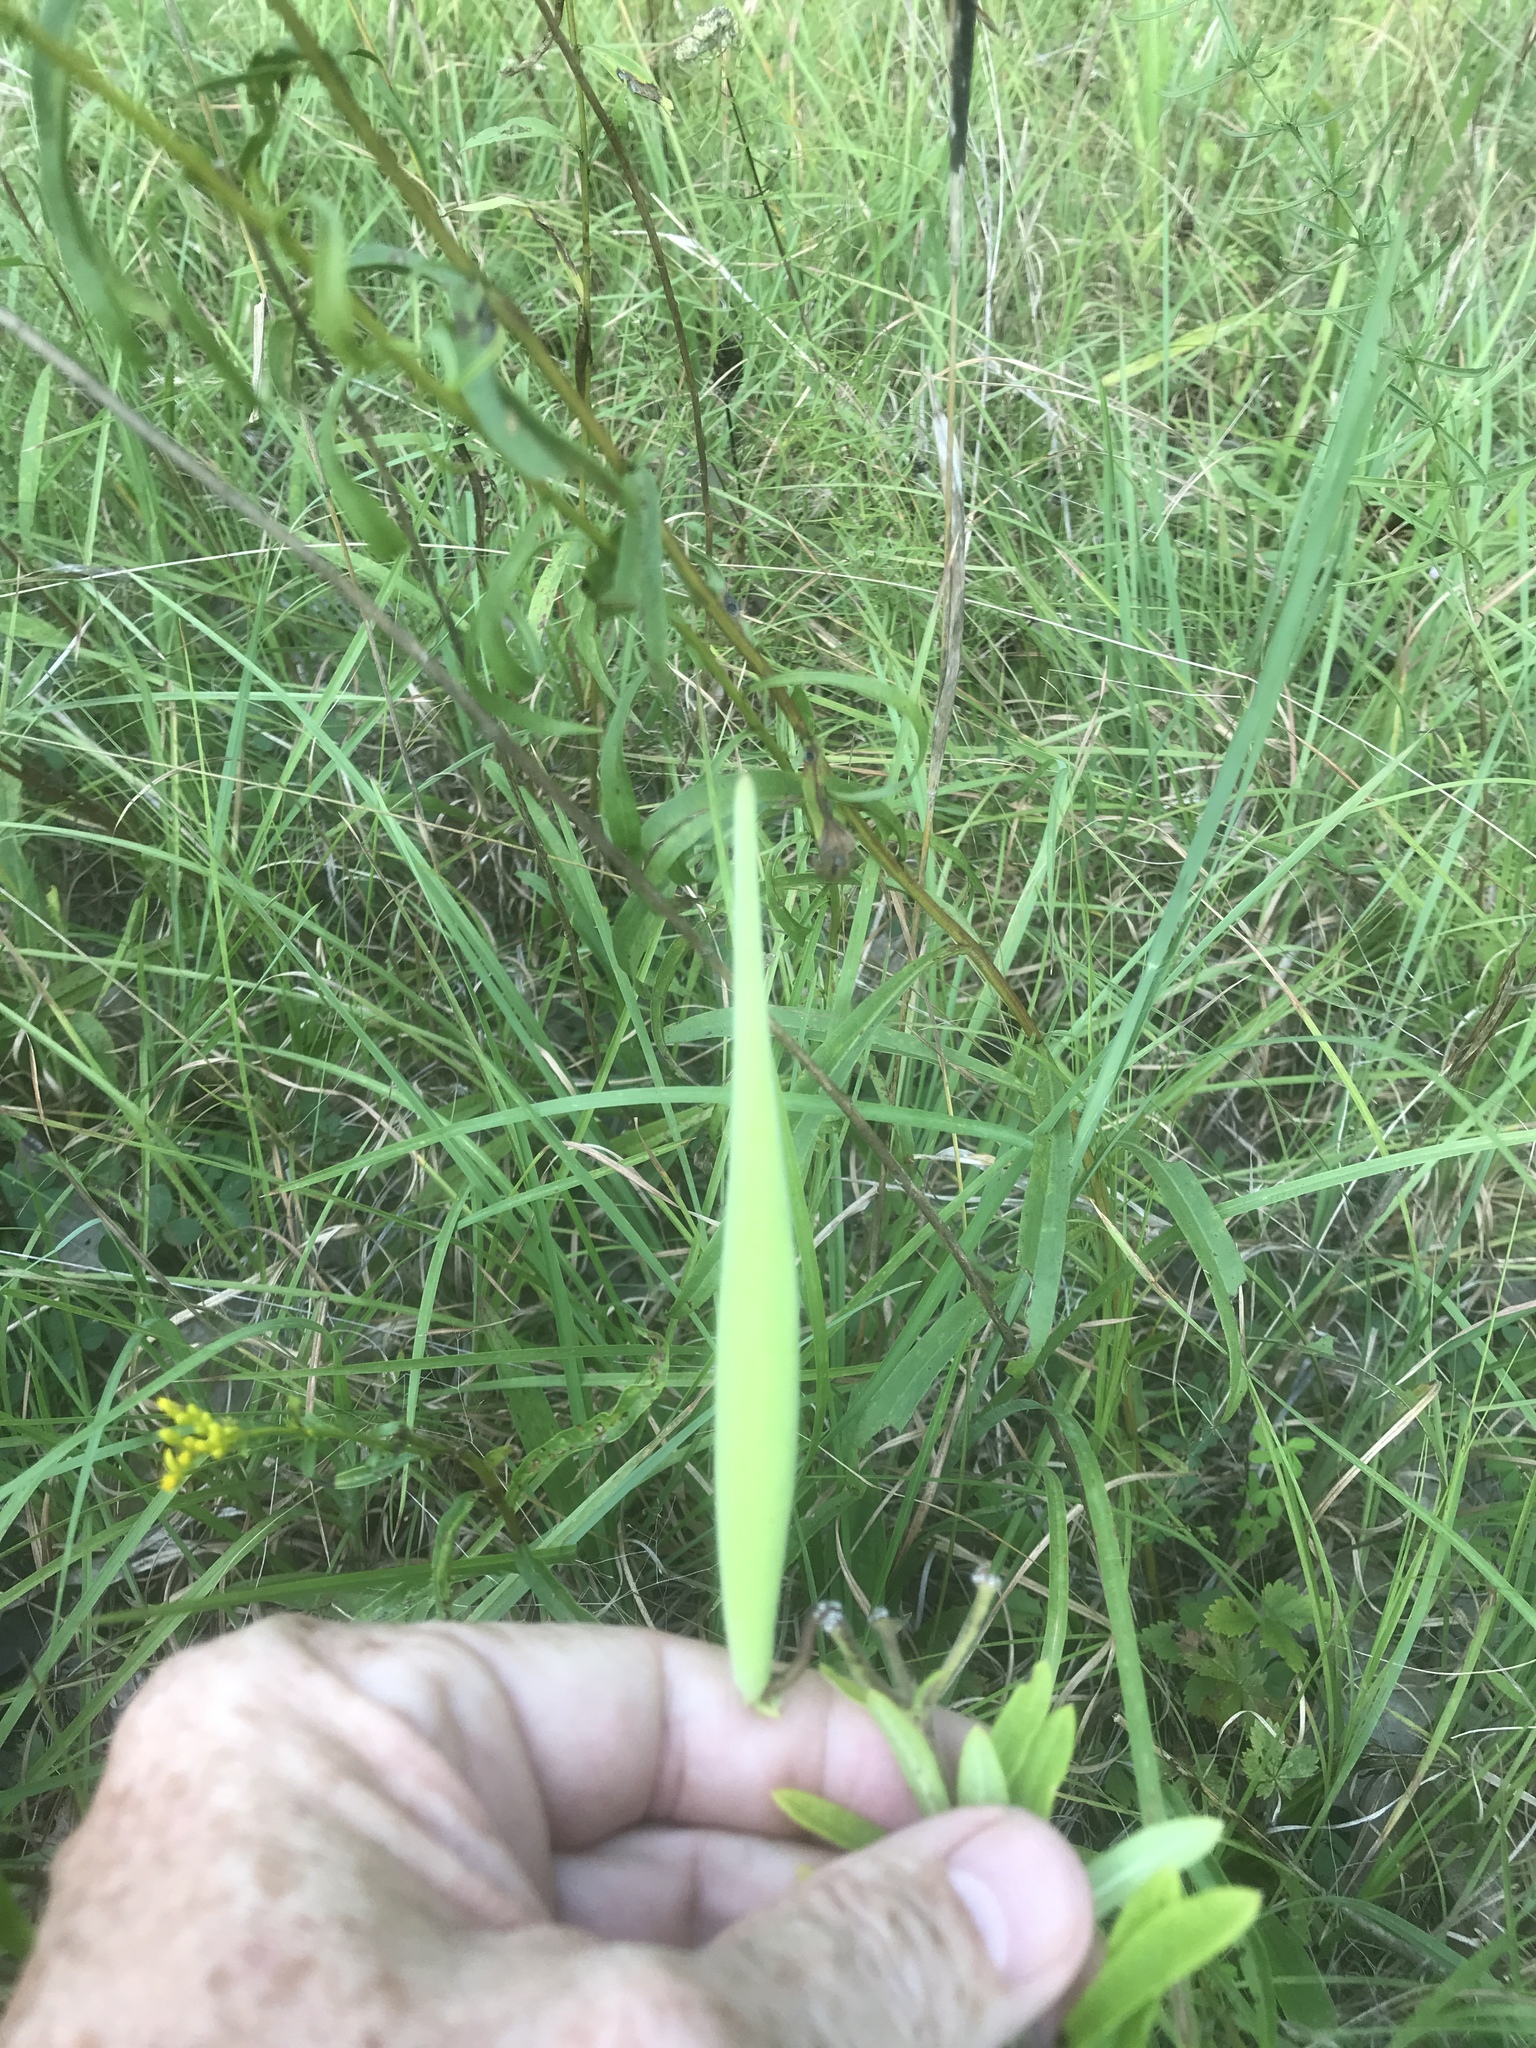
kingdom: Plantae
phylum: Tracheophyta
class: Magnoliopsida
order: Gentianales
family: Apocynaceae
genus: Asclepias
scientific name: Asclepias tuberosa
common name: Butterfly milkweed
